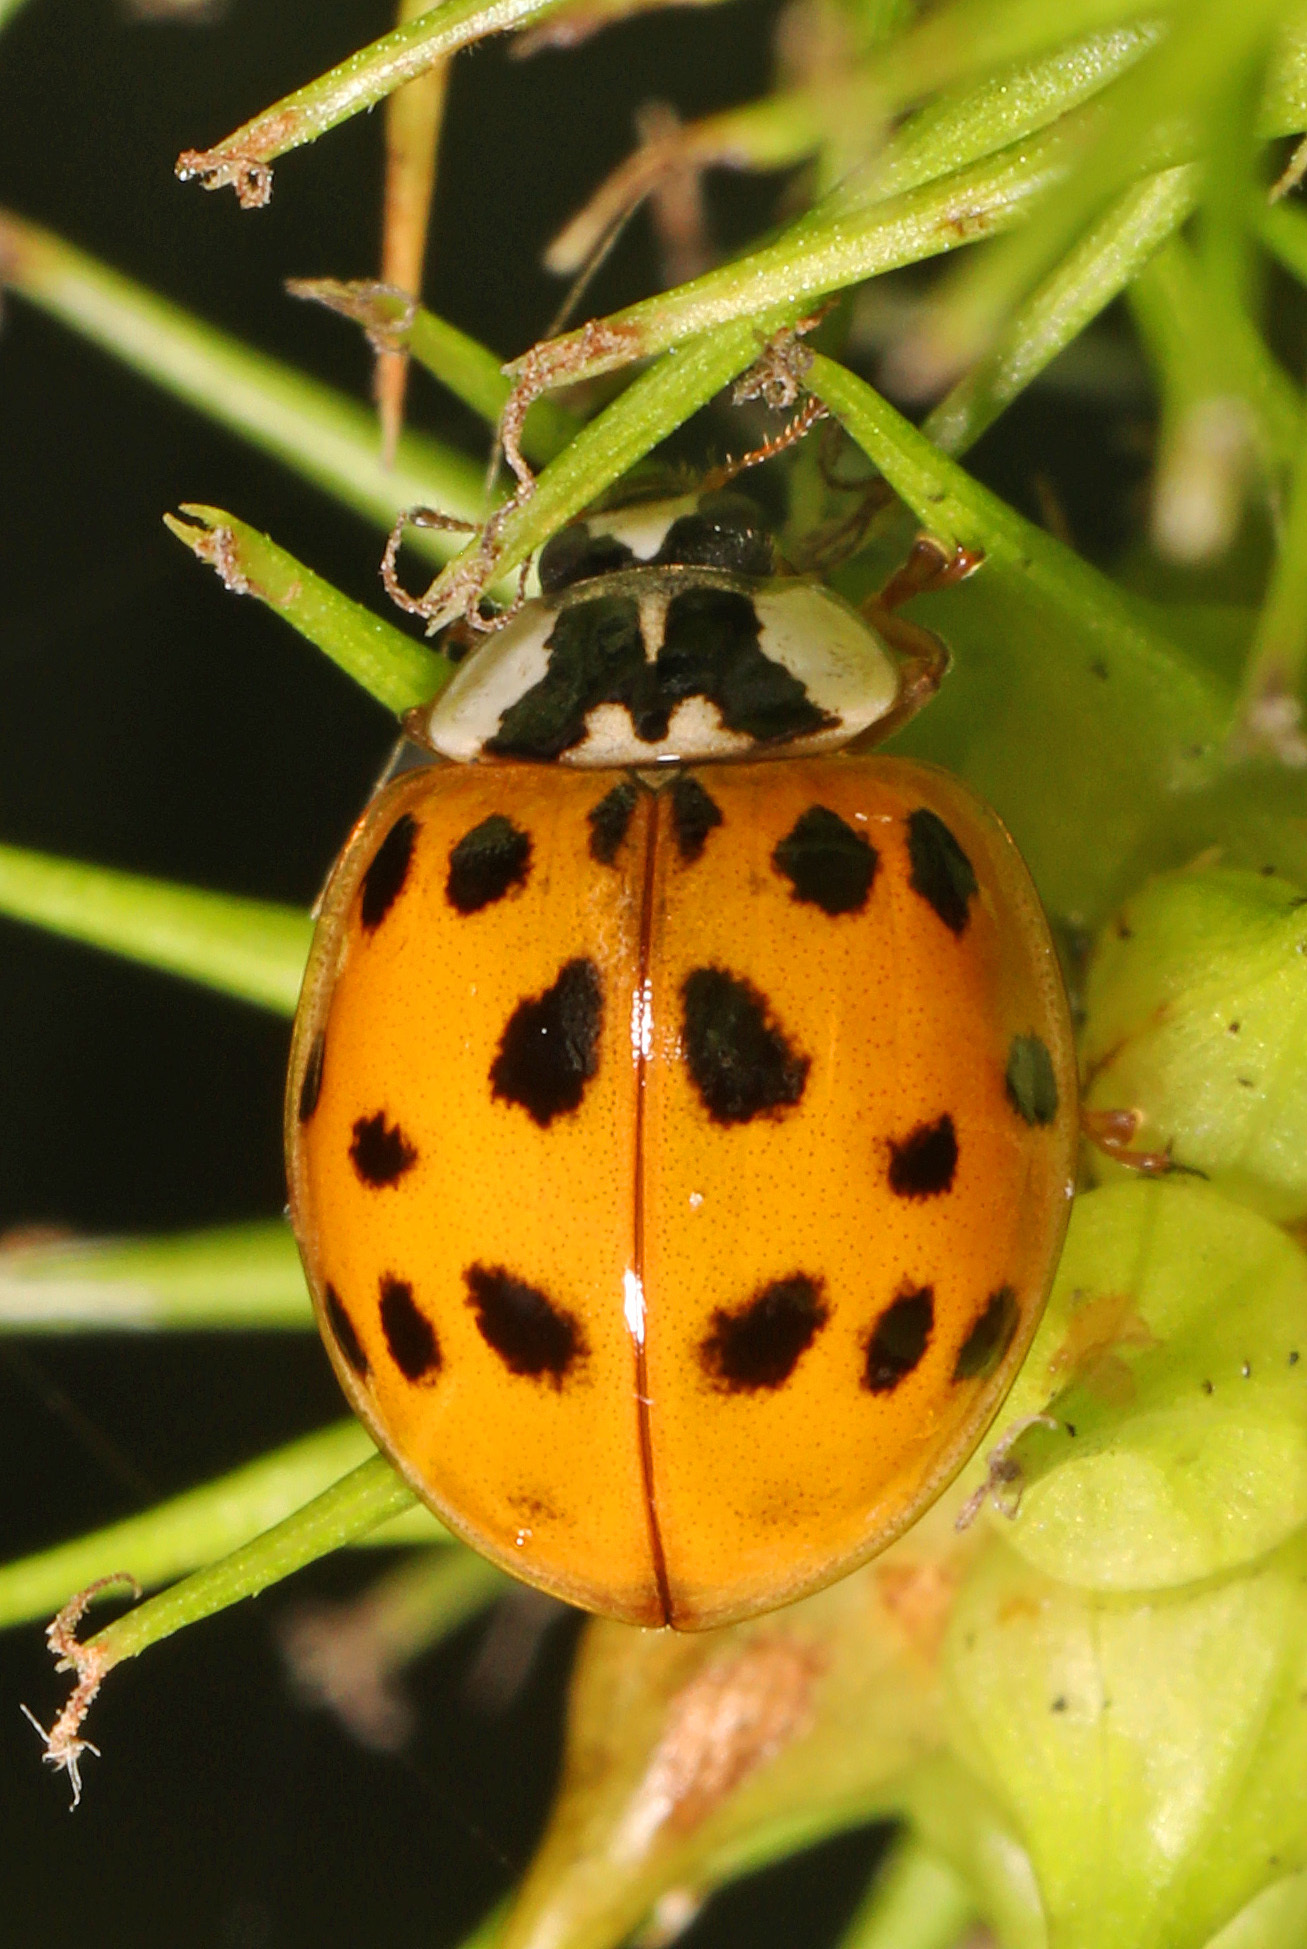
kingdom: Animalia
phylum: Arthropoda
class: Insecta
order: Coleoptera
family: Coccinellidae
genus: Harmonia
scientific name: Harmonia axyridis
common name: Harlequin ladybird
